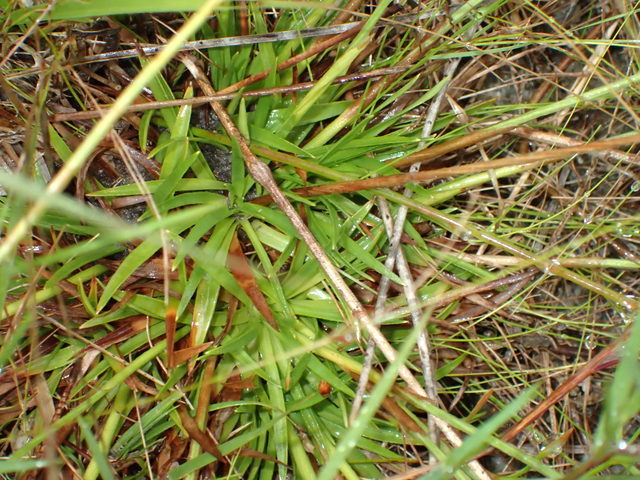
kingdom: Plantae
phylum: Tracheophyta
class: Liliopsida
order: Poales
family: Eriocaulaceae
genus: Paepalanthus
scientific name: Paepalanthus anceps
